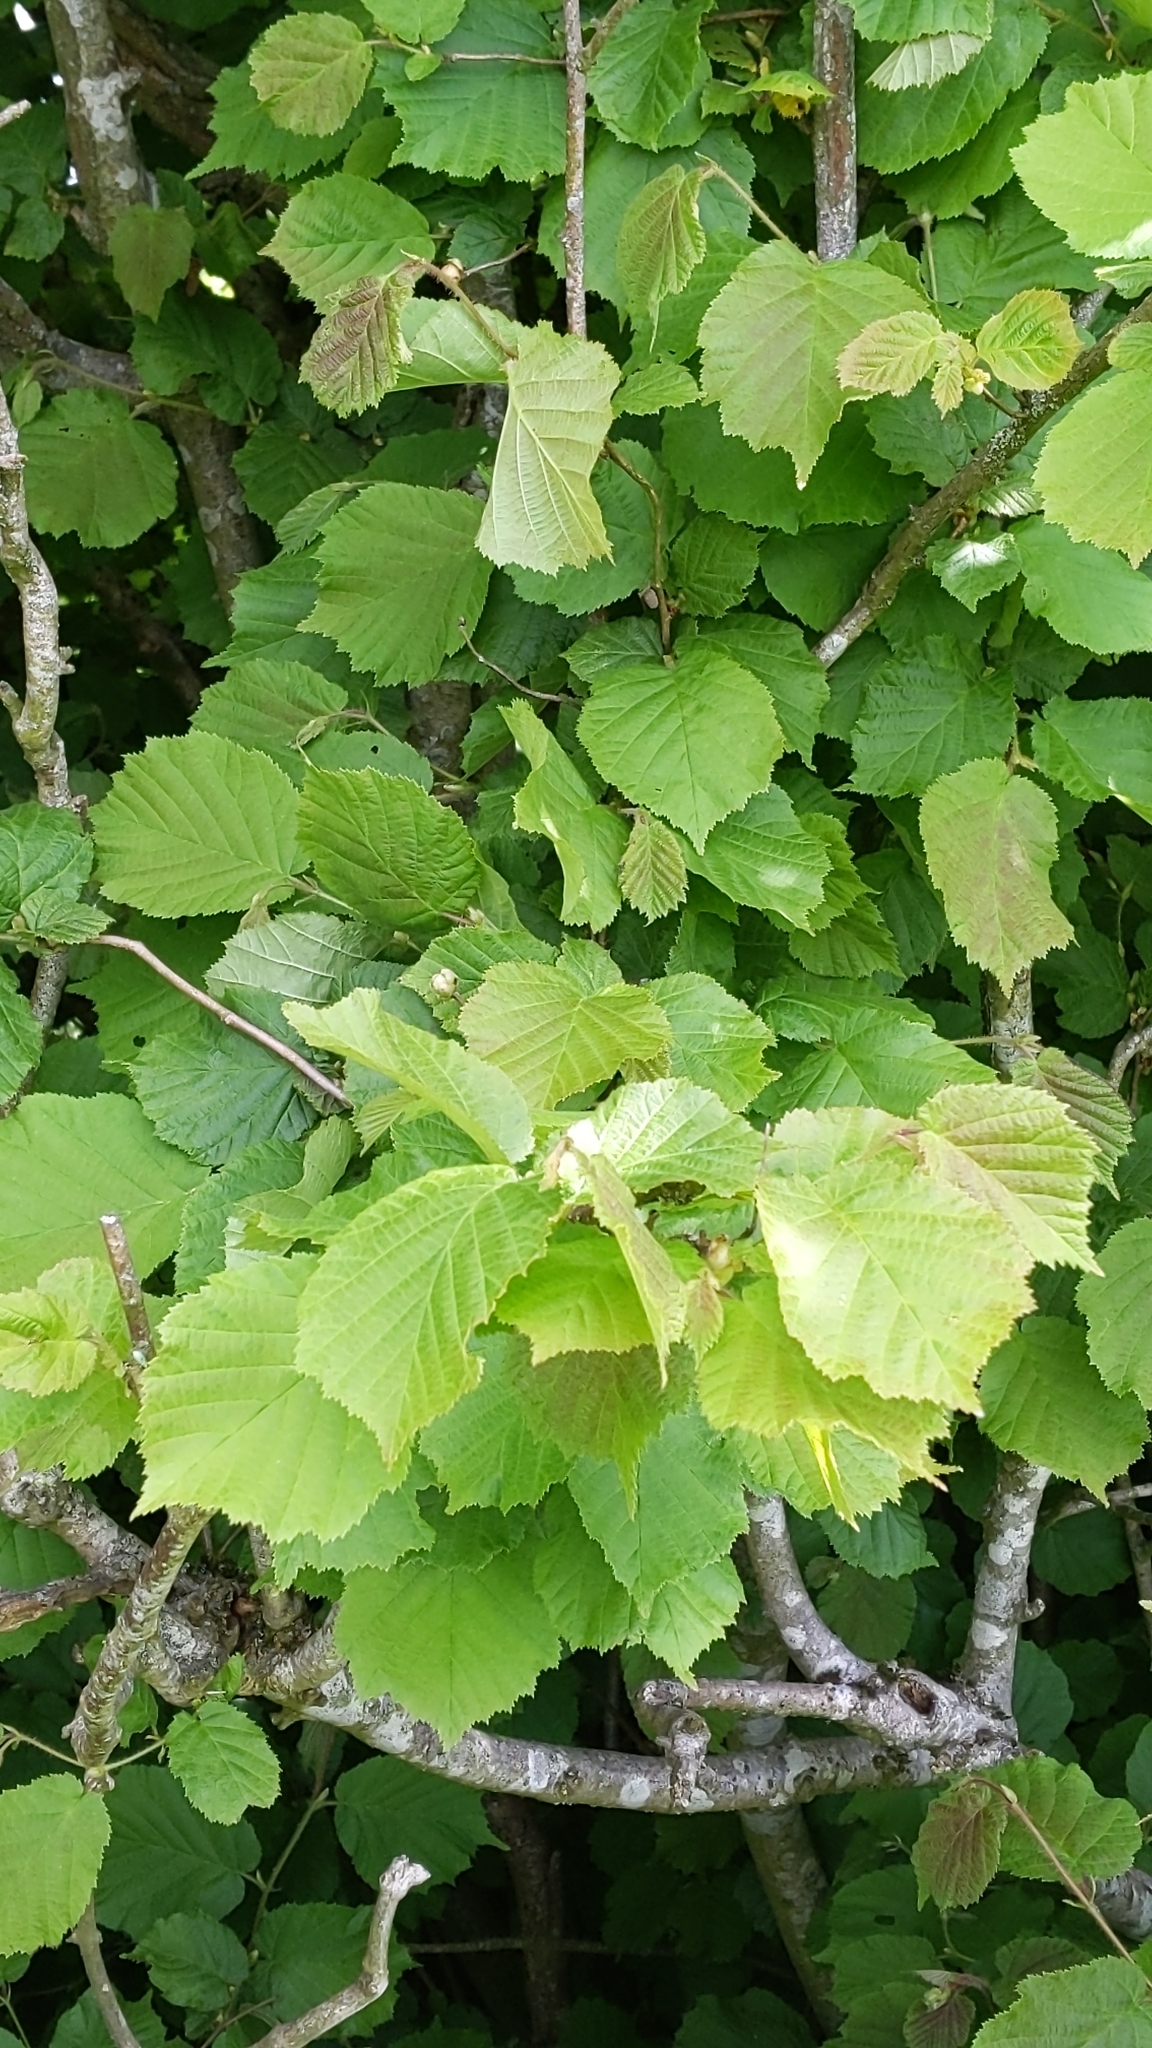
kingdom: Plantae
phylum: Tracheophyta
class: Magnoliopsida
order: Fagales
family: Betulaceae
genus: Corylus
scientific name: Corylus avellana
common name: European hazel
